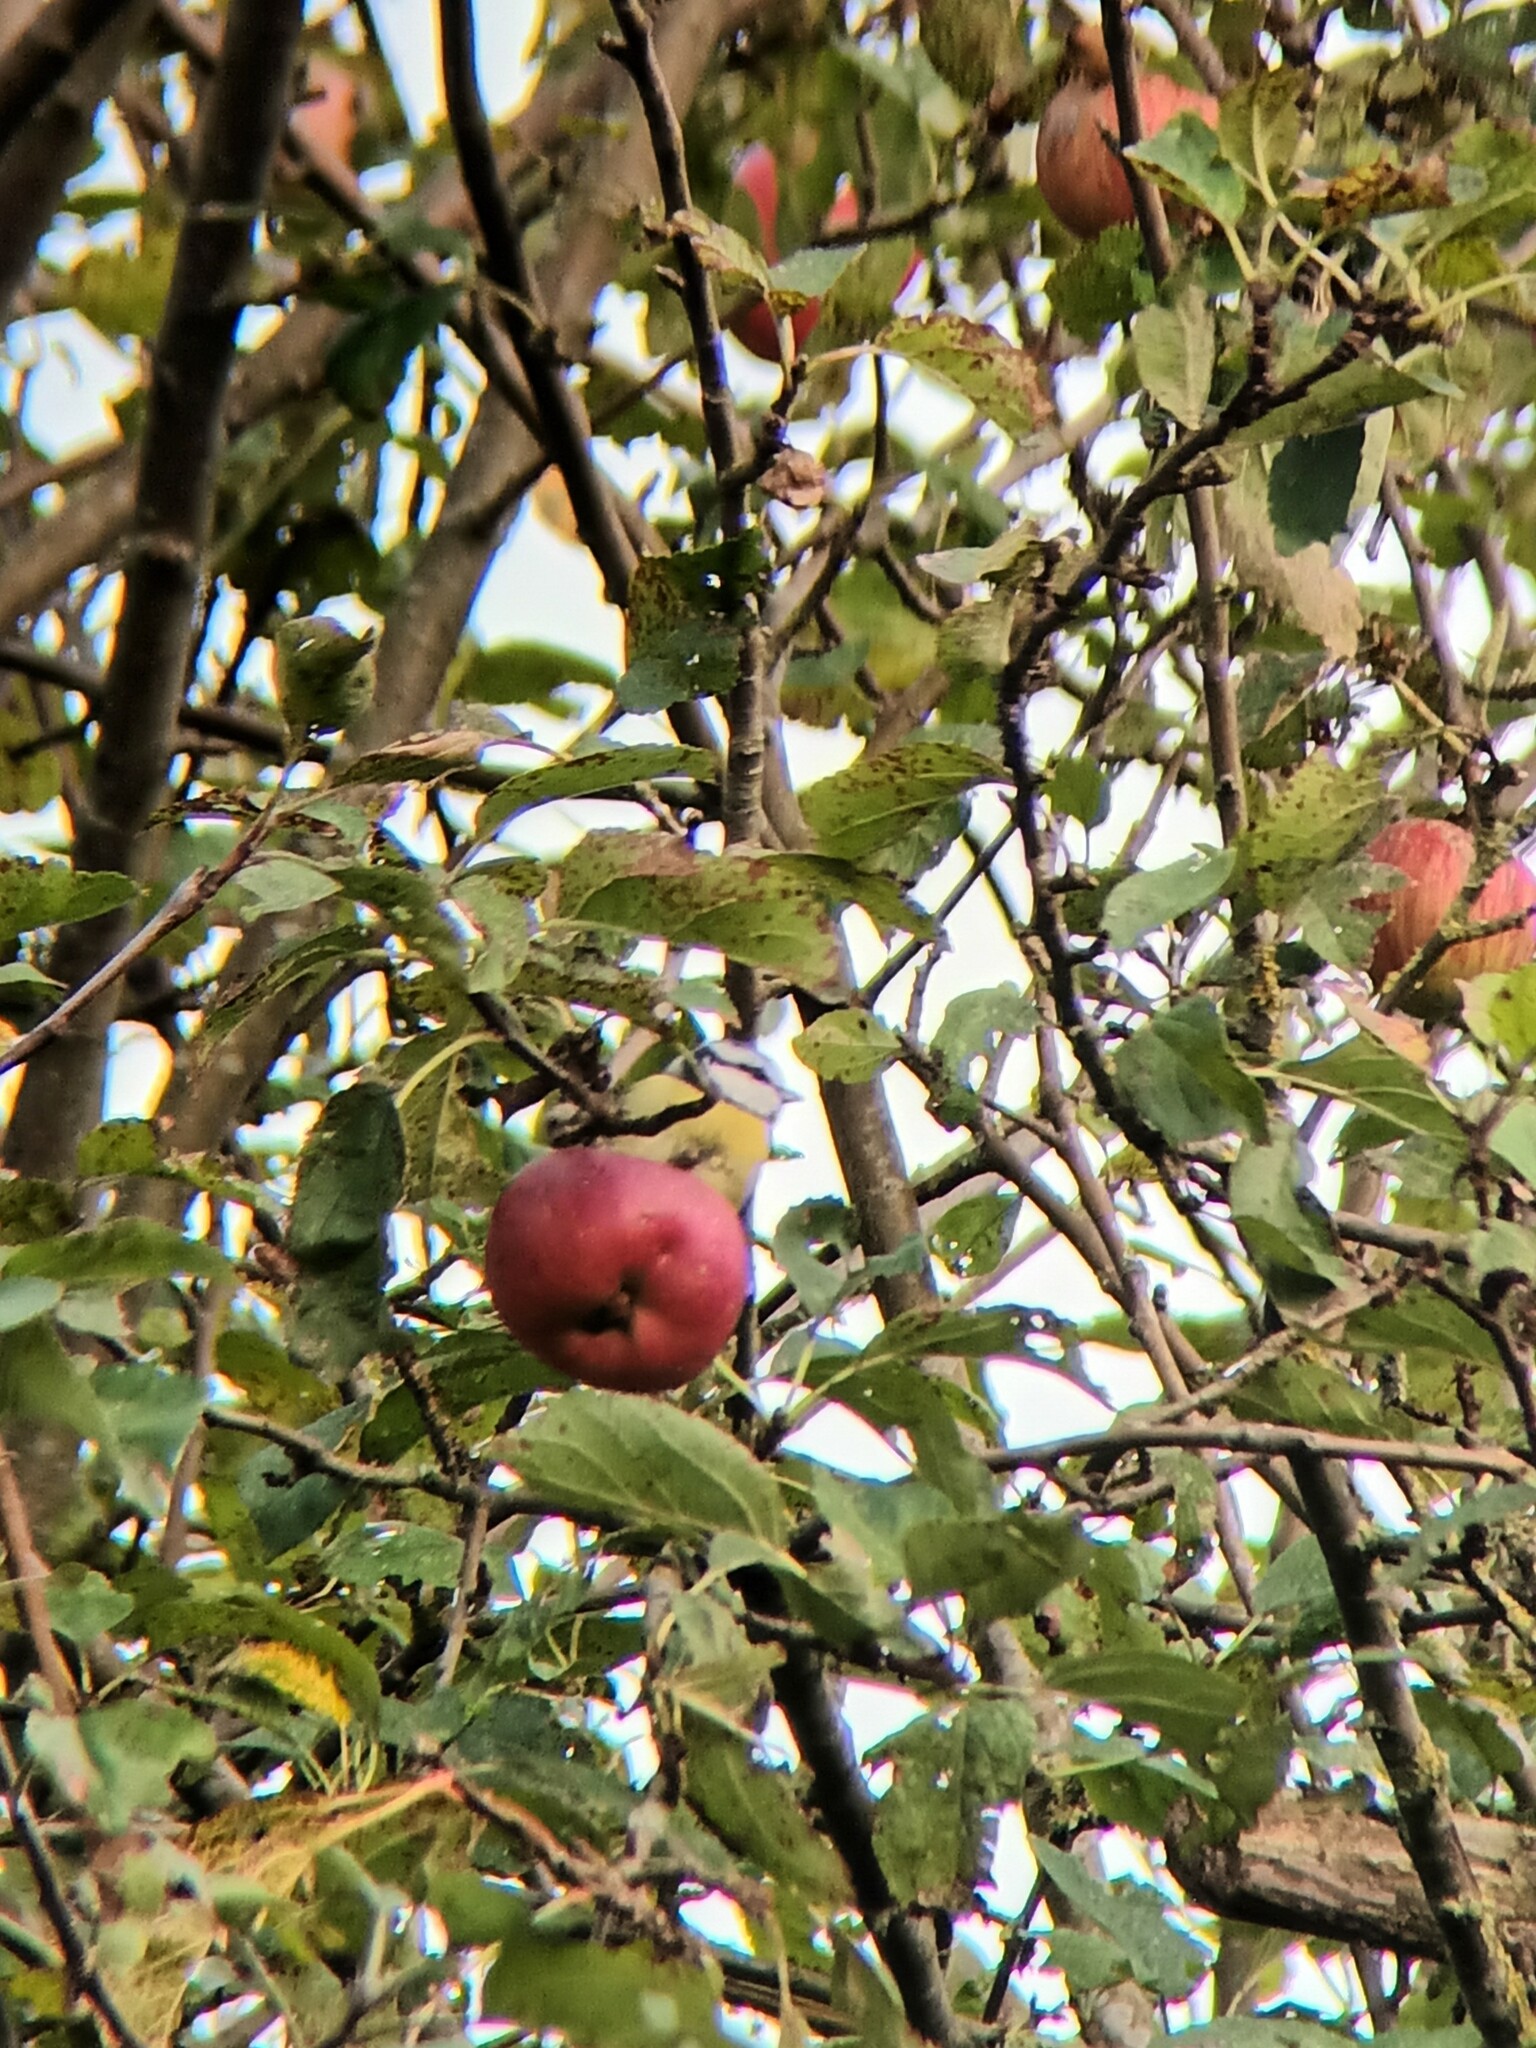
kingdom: Animalia
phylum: Chordata
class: Aves
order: Passeriformes
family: Paridae
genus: Cyanistes
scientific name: Cyanistes caeruleus
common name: Eurasian blue tit
